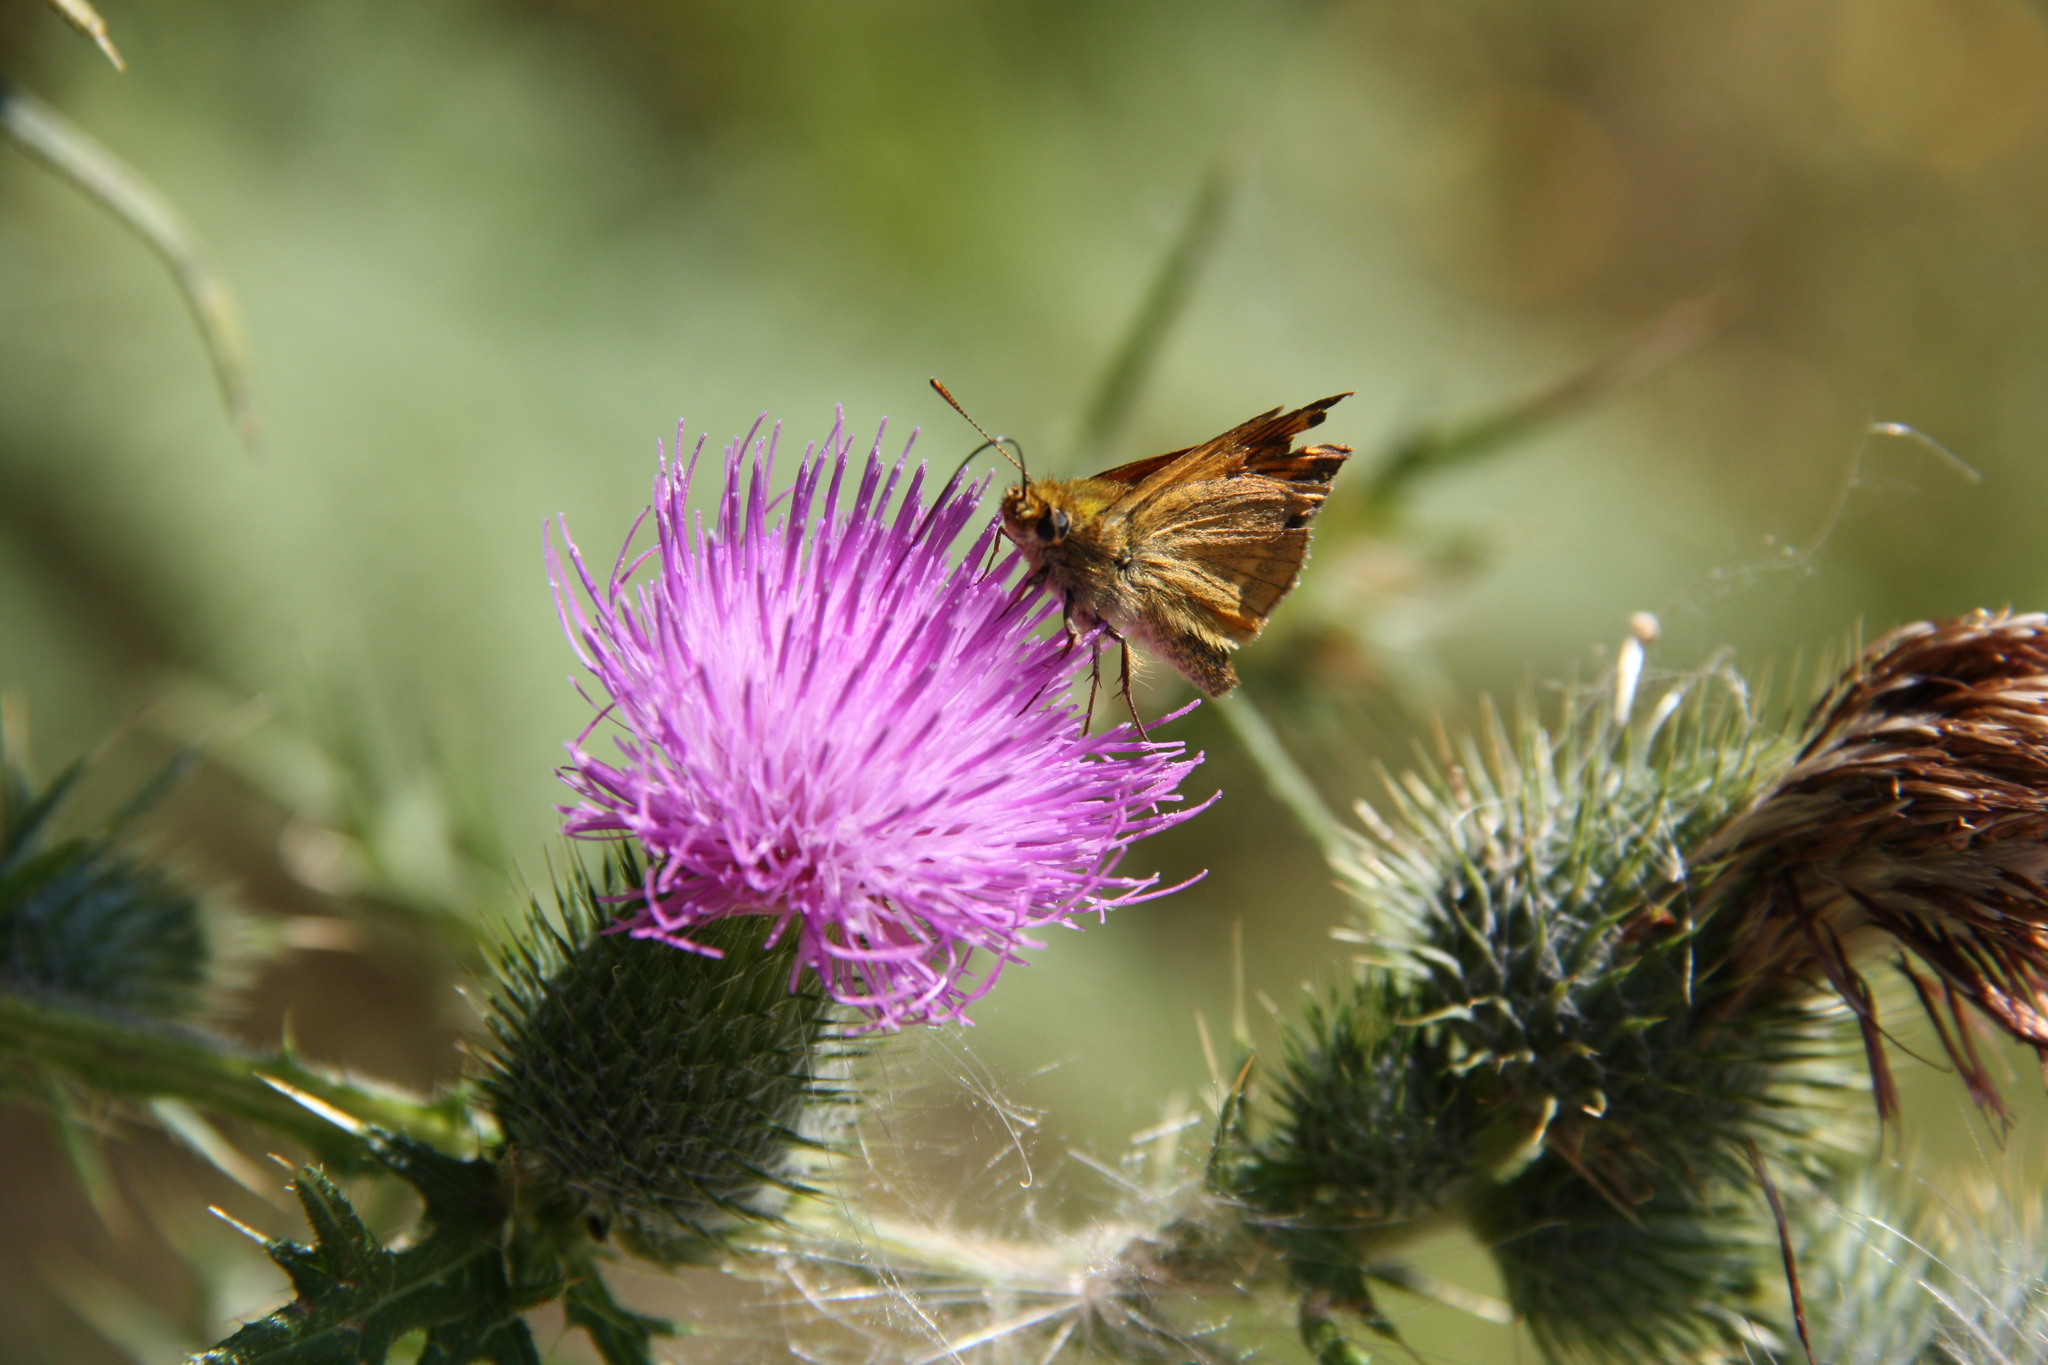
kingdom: Animalia
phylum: Arthropoda
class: Insecta
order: Lepidoptera
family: Hesperiidae
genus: Ochlodes
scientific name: Ochlodes venata
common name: Large skipper
